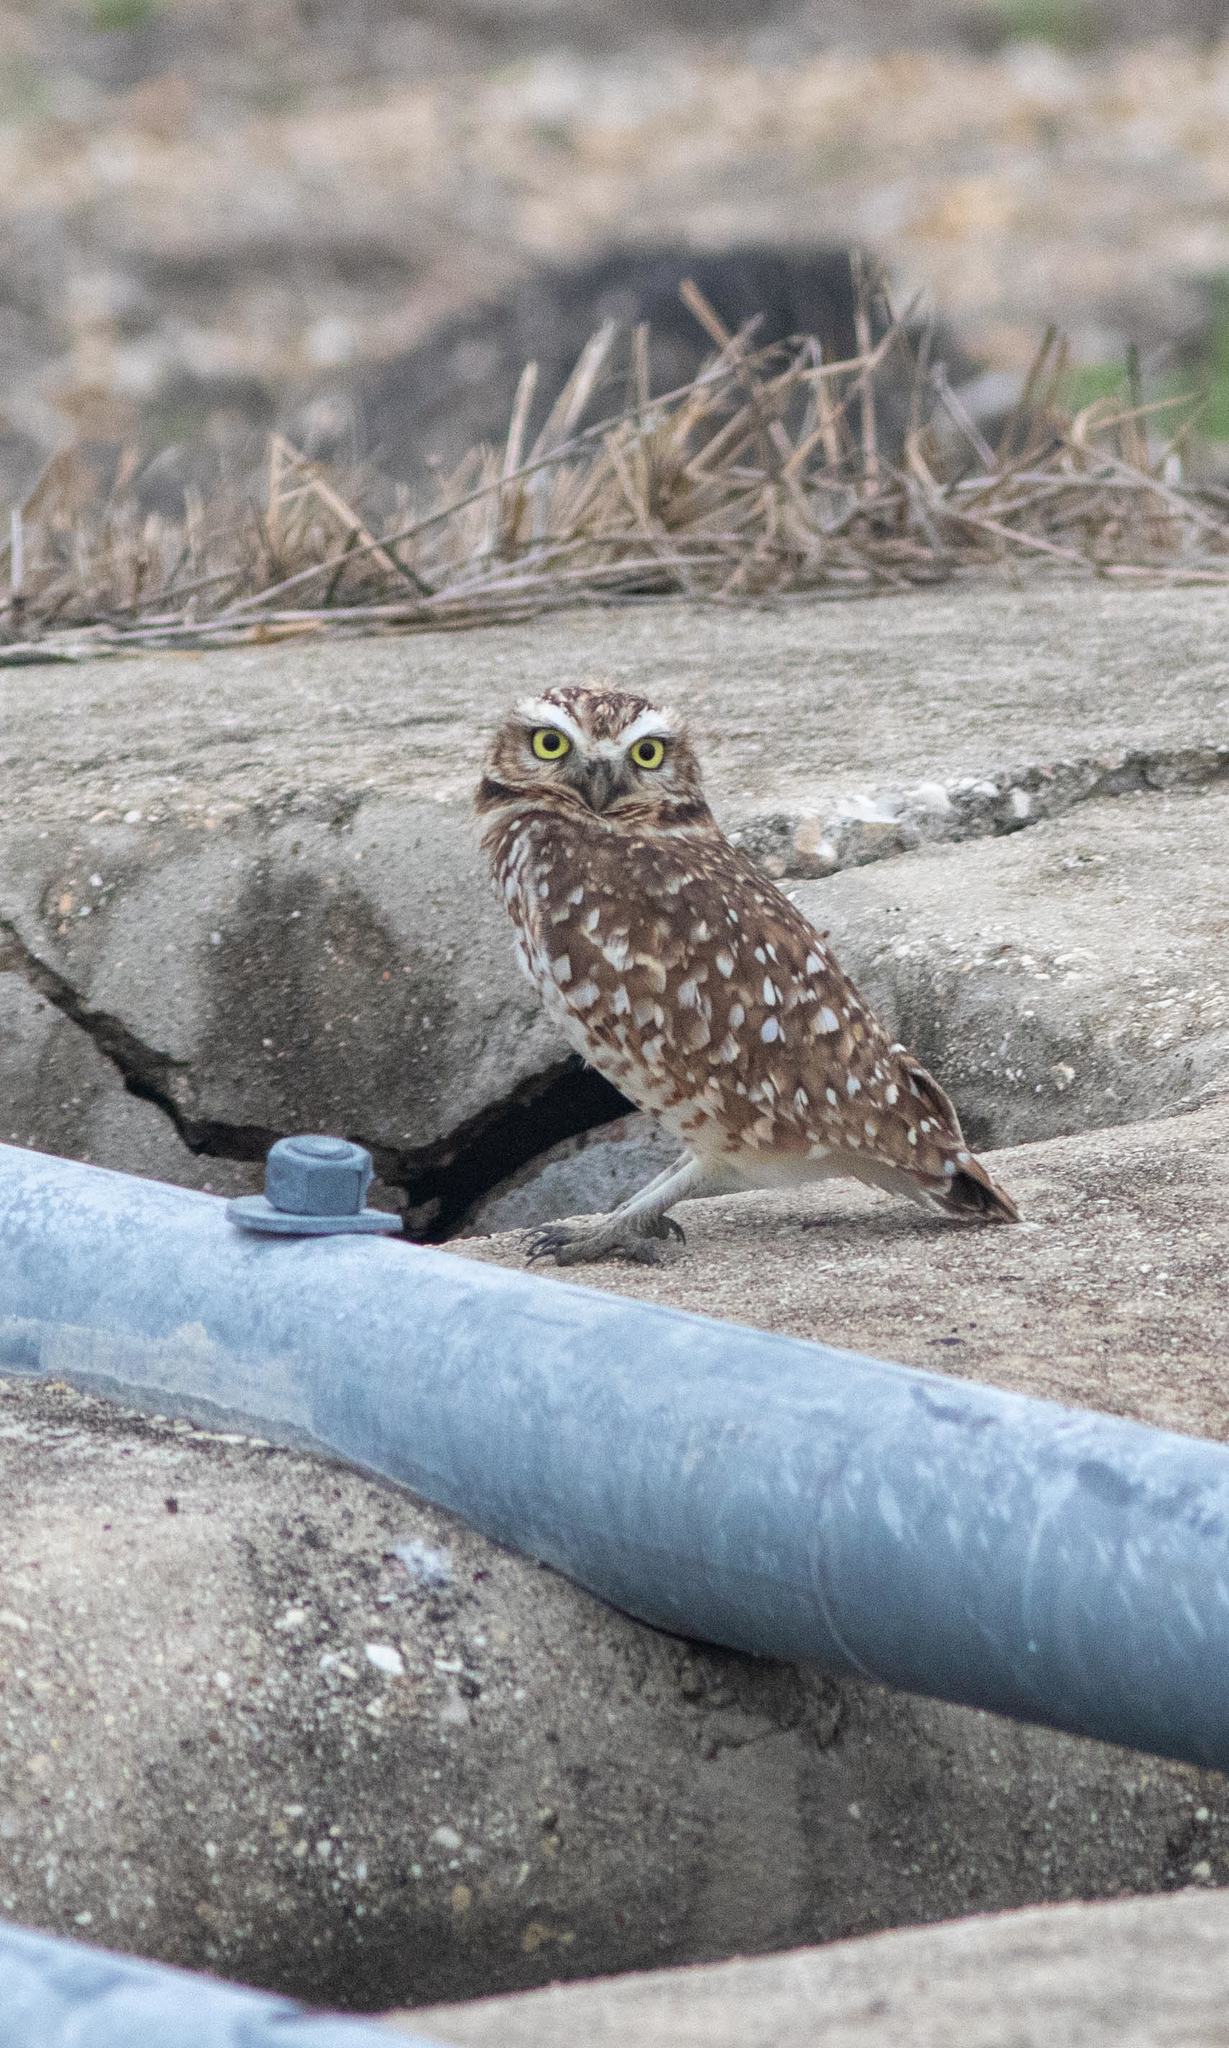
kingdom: Animalia
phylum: Chordata
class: Aves
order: Strigiformes
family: Strigidae
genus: Athene
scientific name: Athene cunicularia
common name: Burrowing owl
